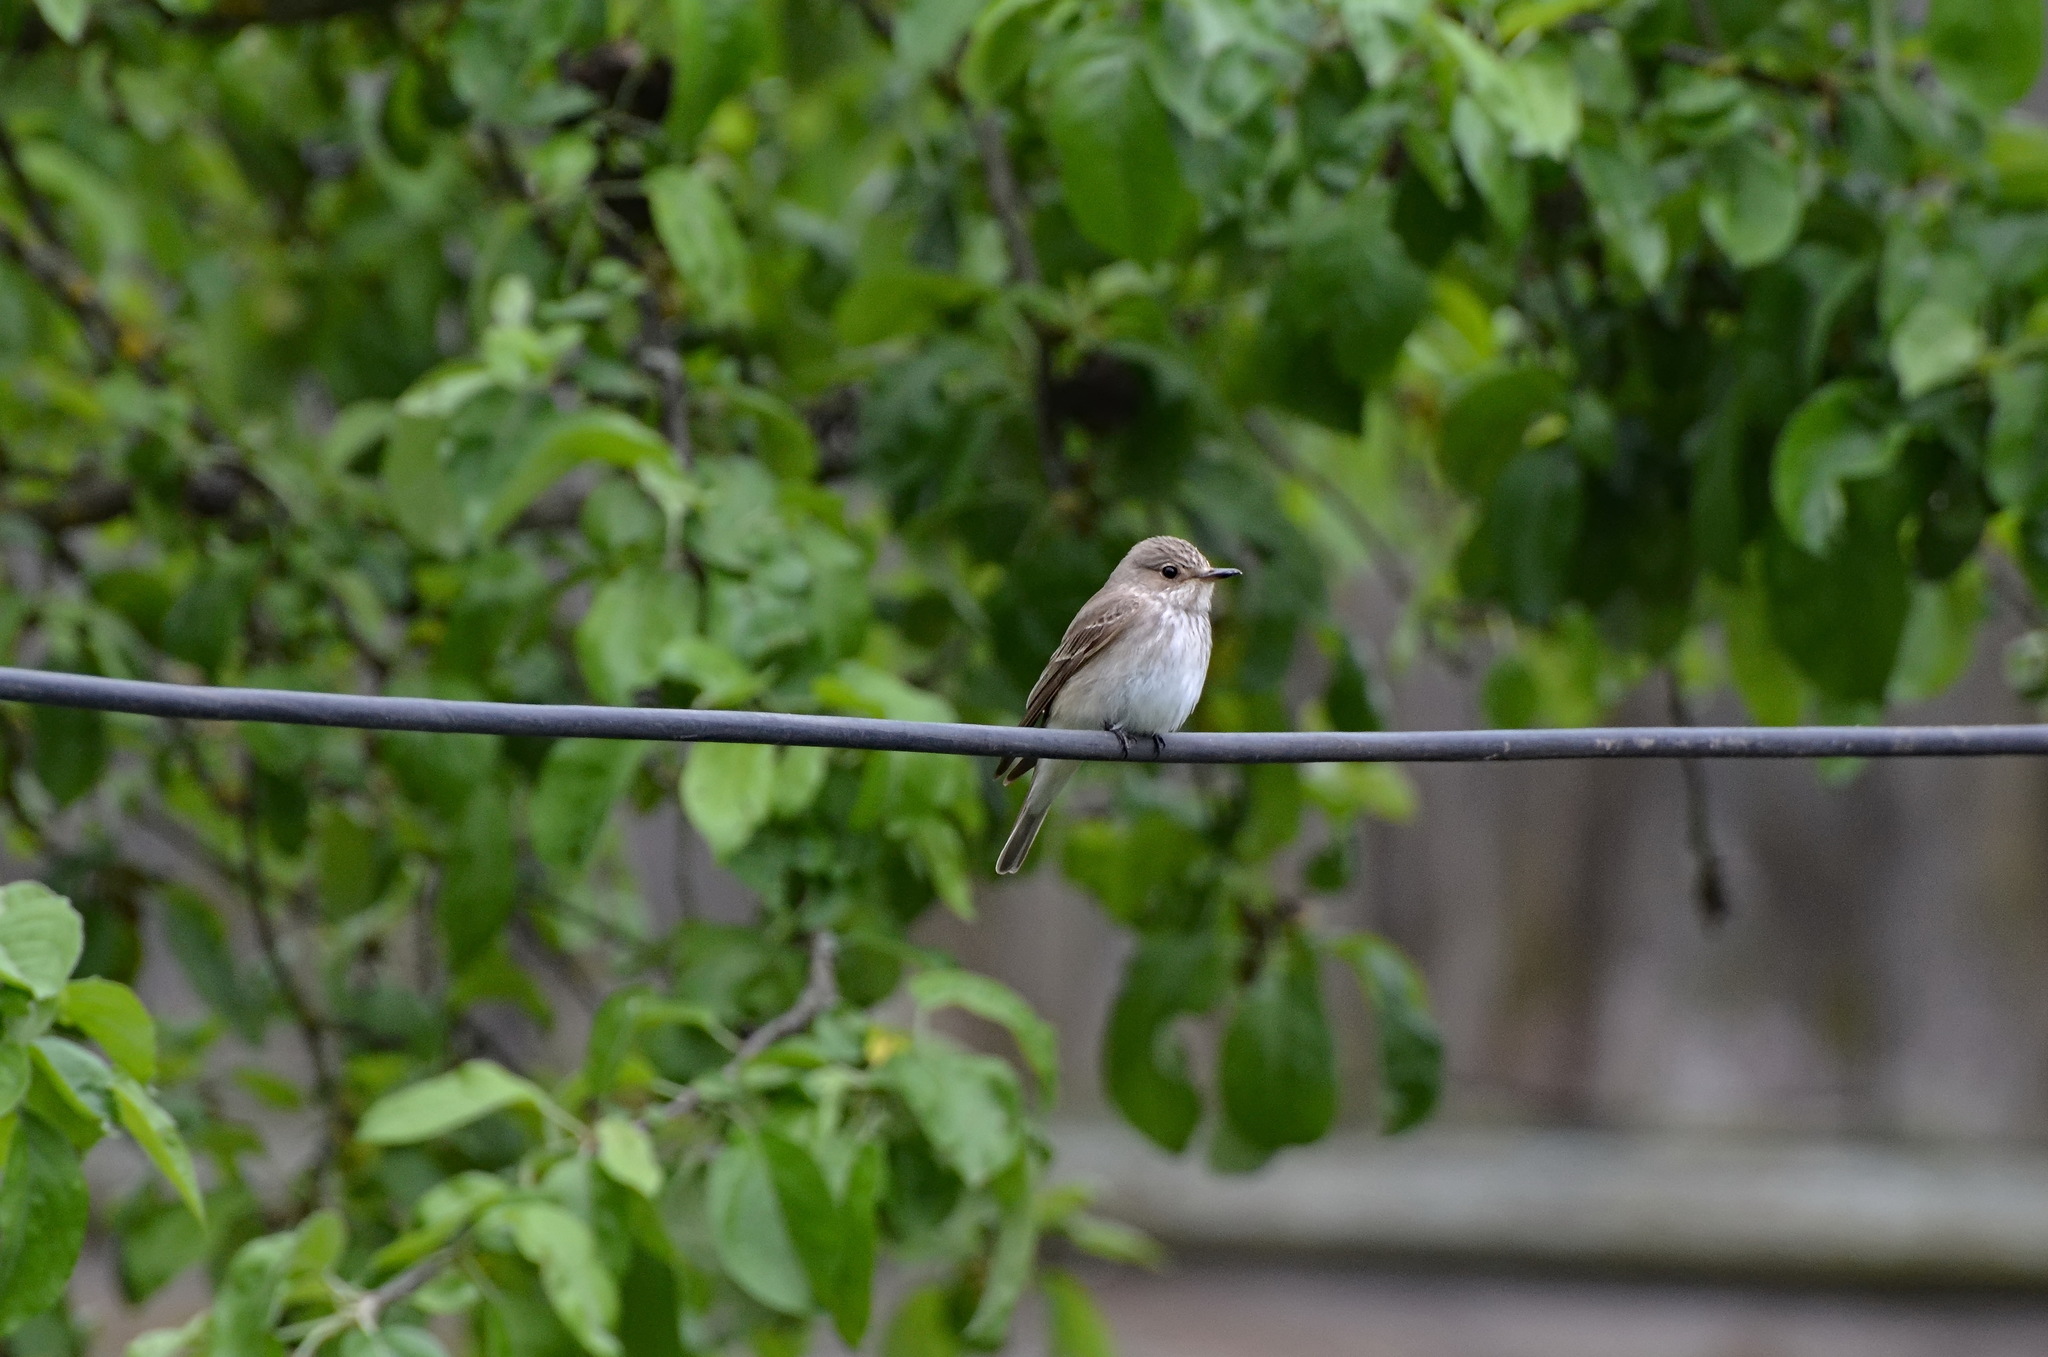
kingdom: Animalia
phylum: Chordata
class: Aves
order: Passeriformes
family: Muscicapidae
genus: Muscicapa
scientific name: Muscicapa striata
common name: Spotted flycatcher
